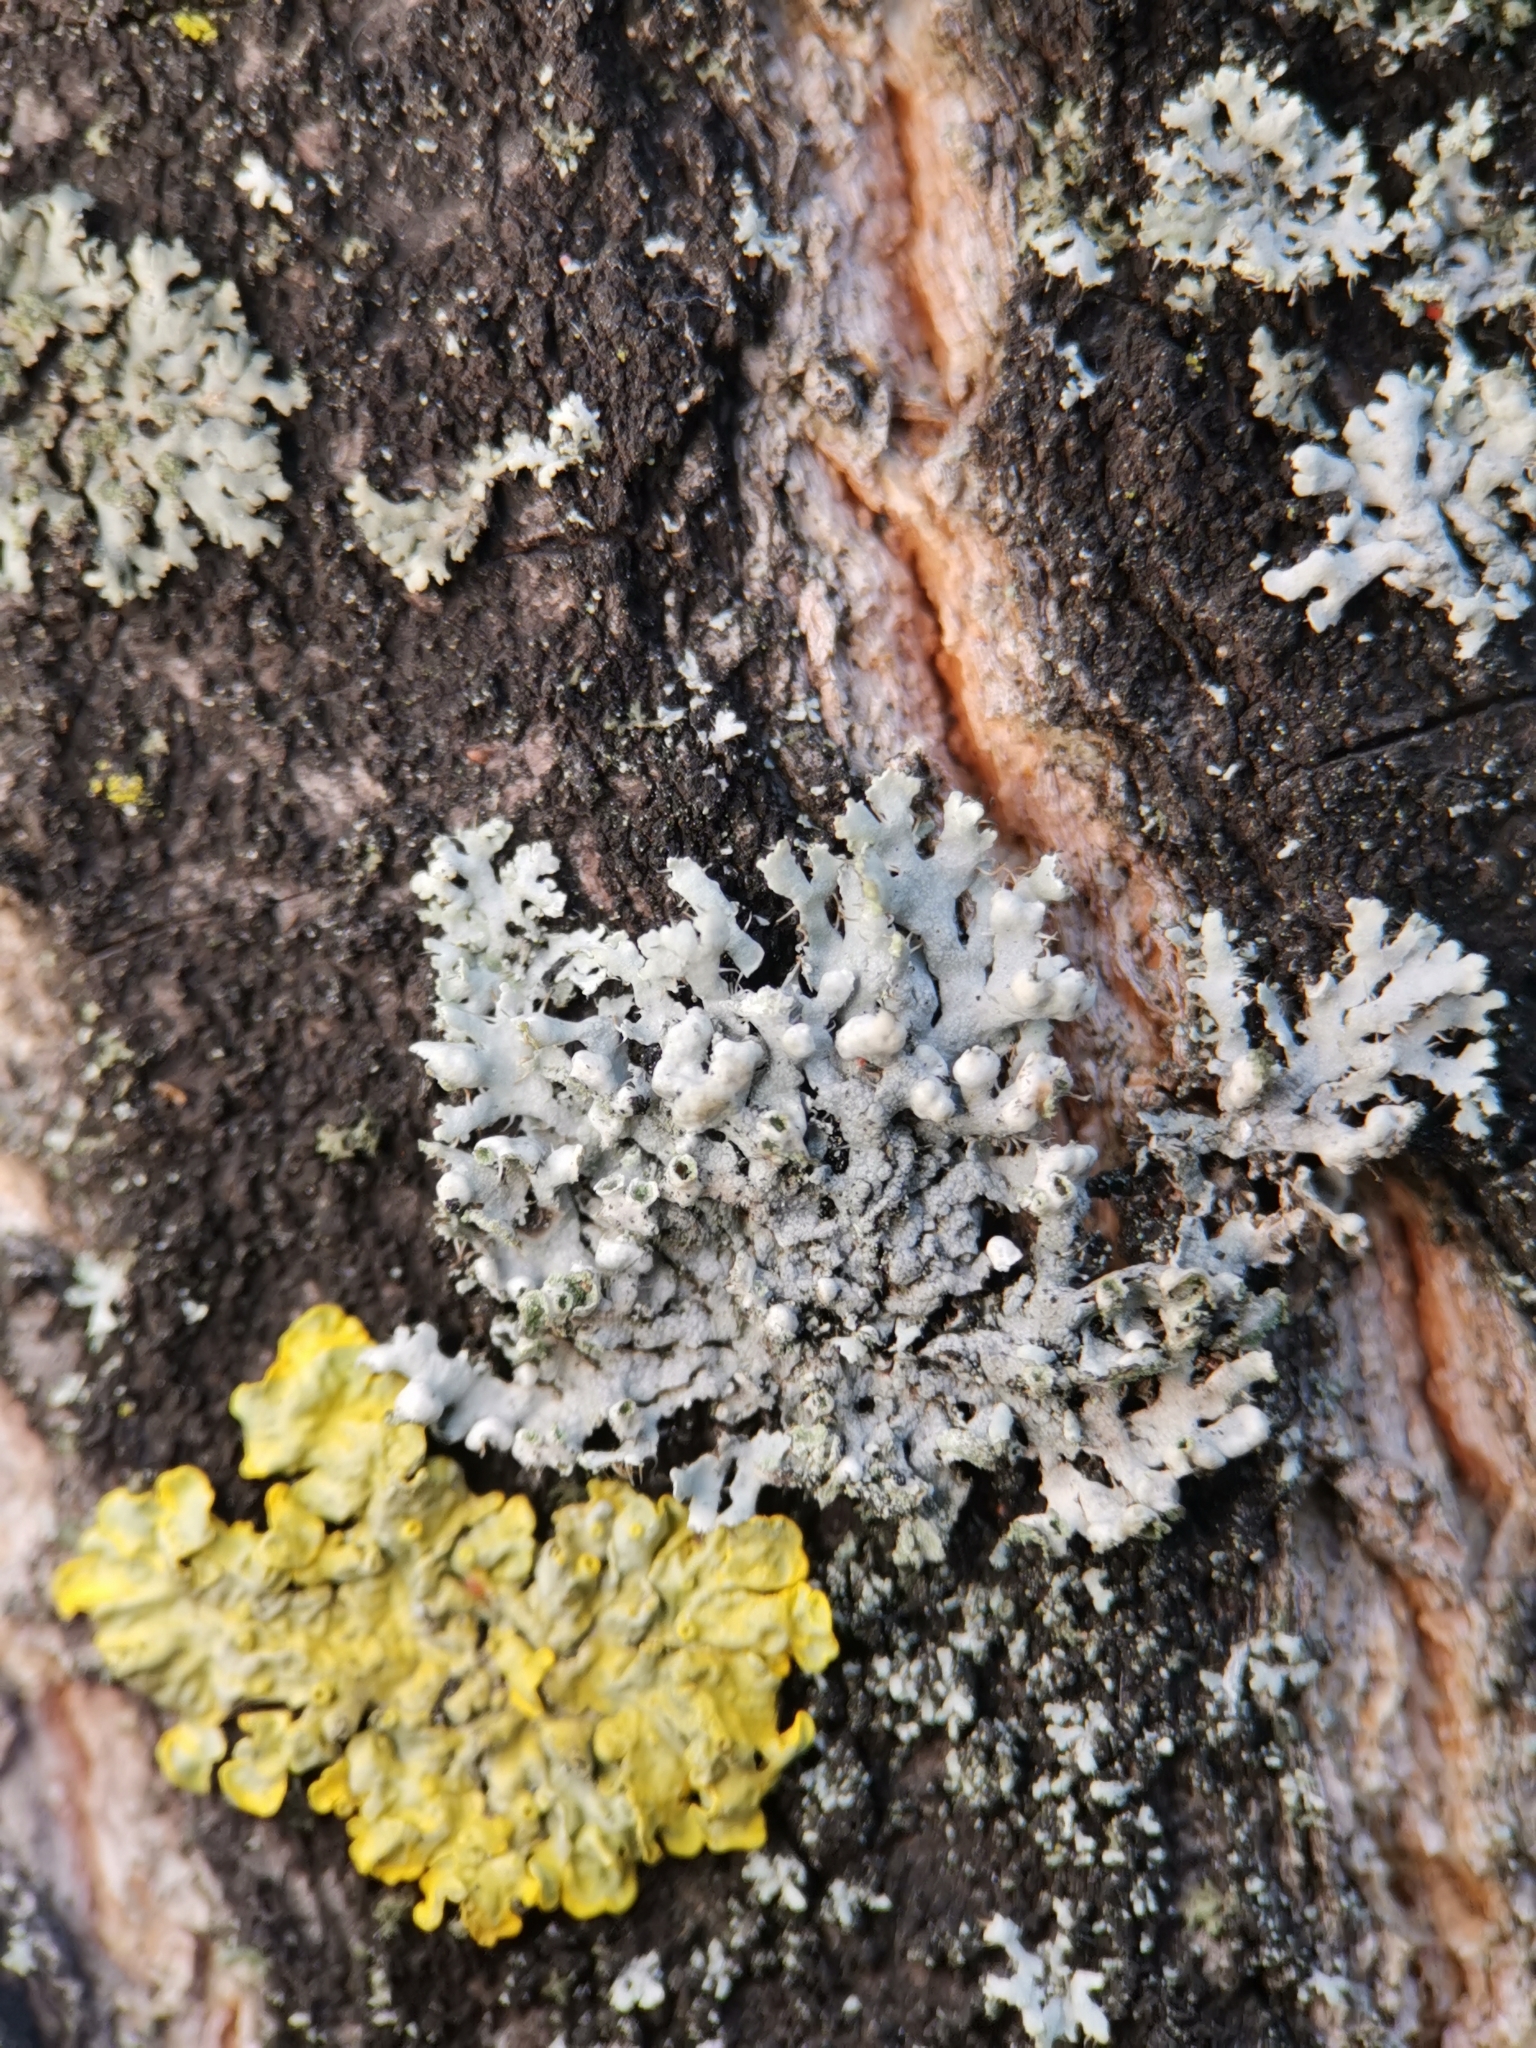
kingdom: Fungi
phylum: Ascomycota
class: Lecanoromycetes
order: Caliciales
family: Physciaceae
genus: Physcia
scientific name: Physcia adscendens
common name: Hooded rosette lichen
